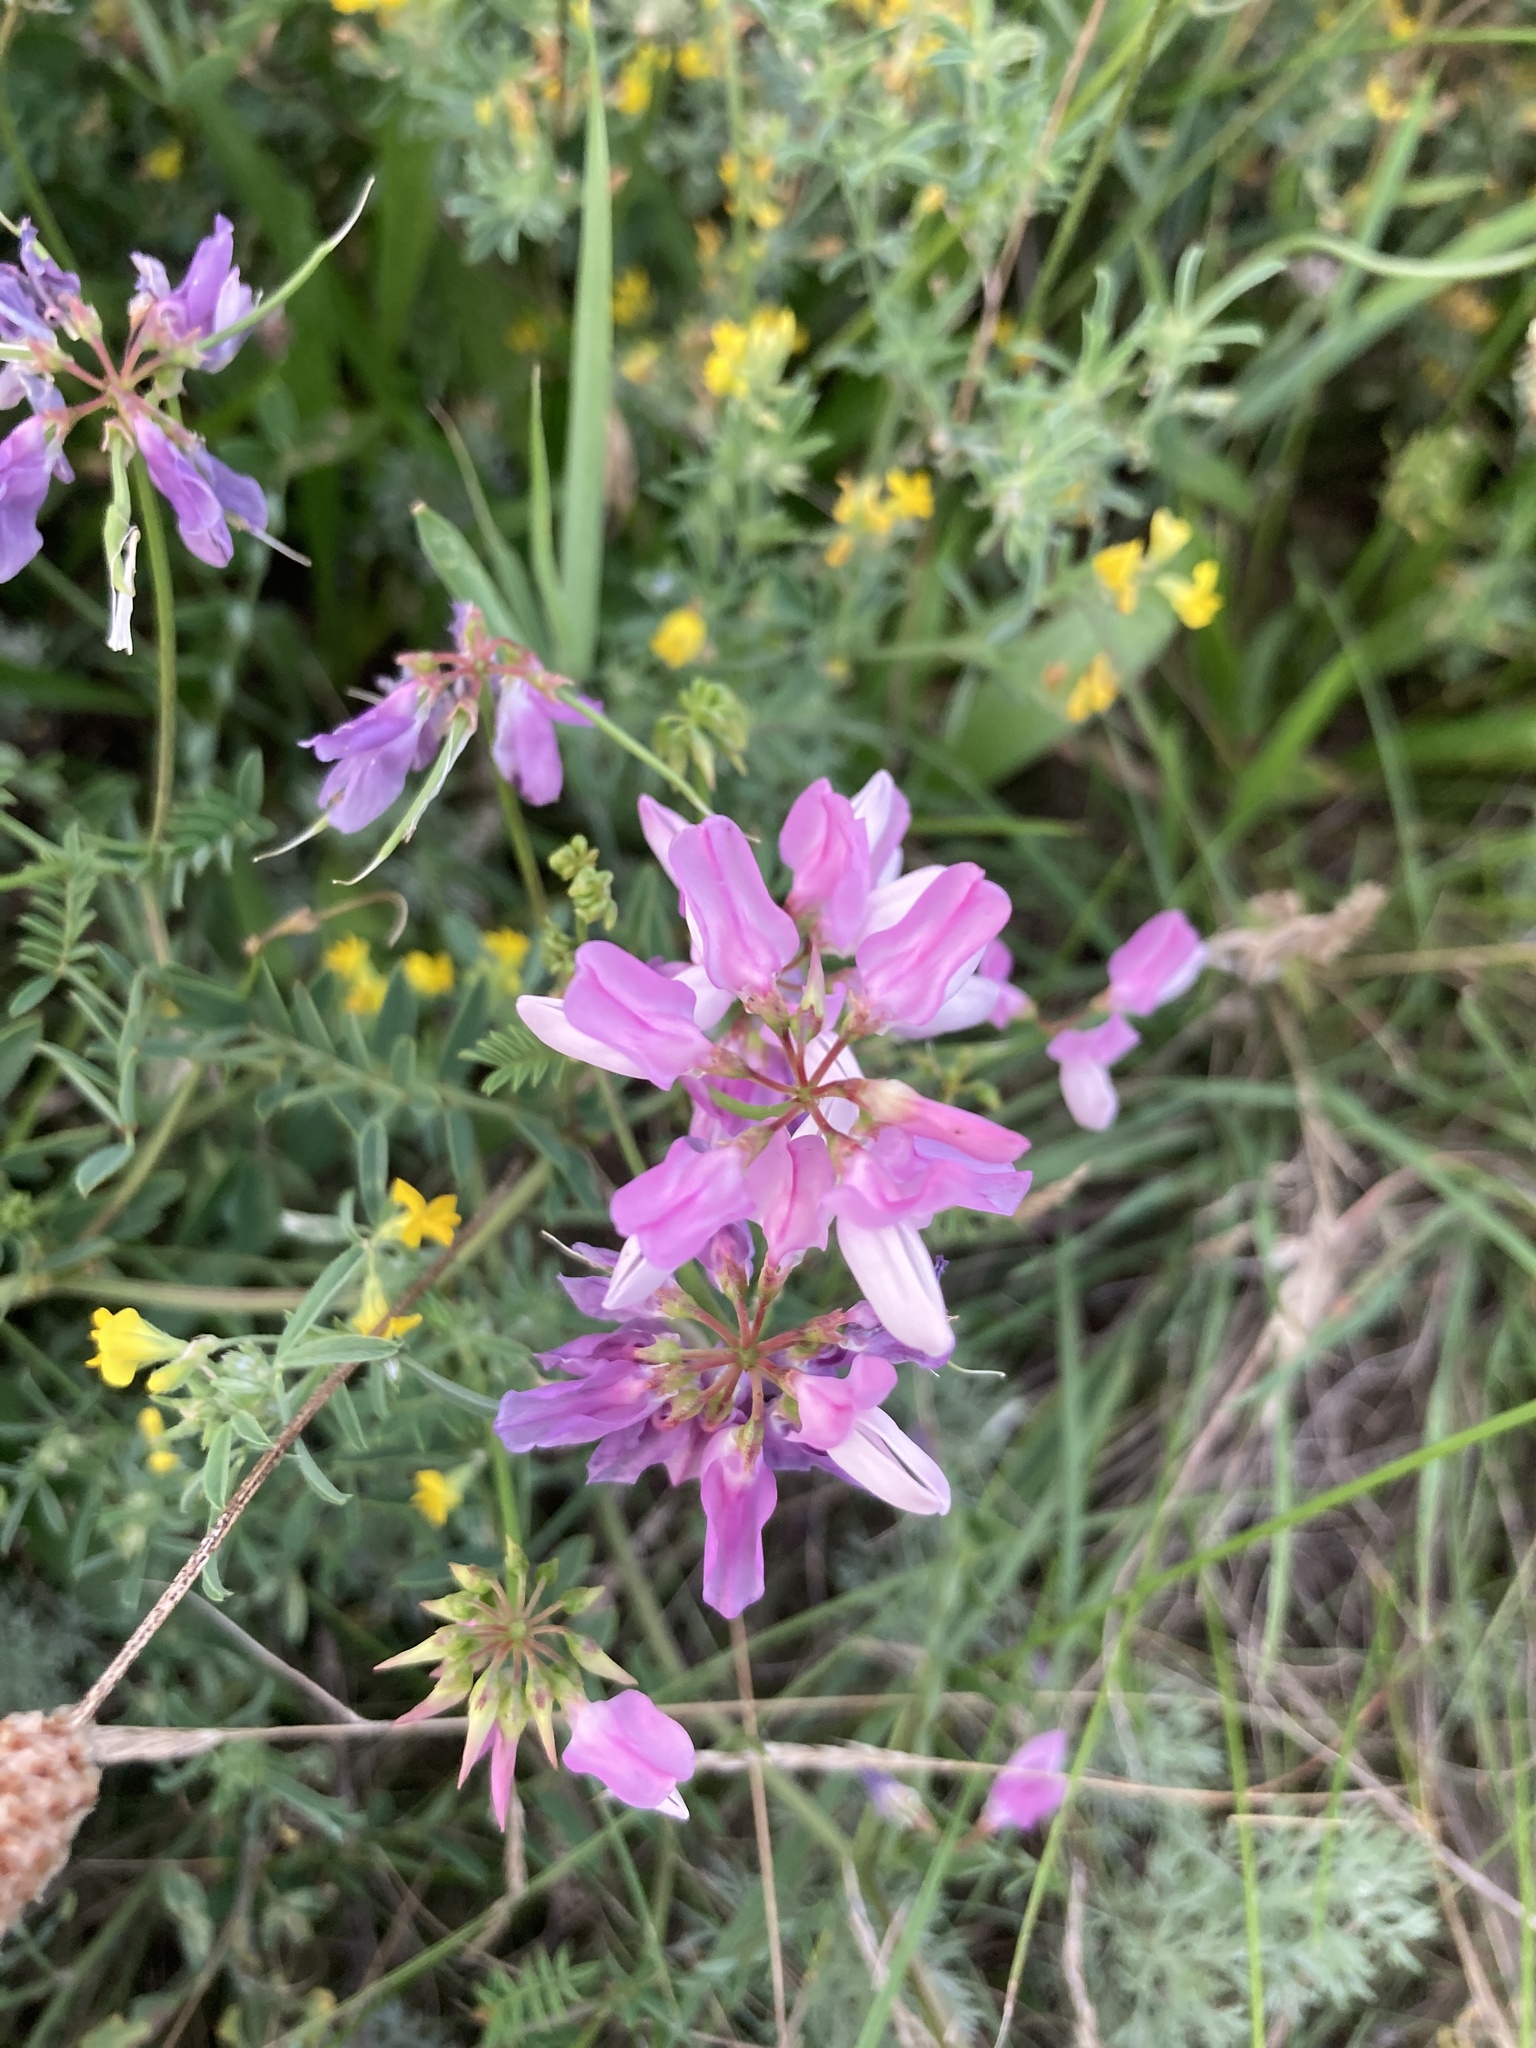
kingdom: Plantae
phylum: Tracheophyta
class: Magnoliopsida
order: Fabales
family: Fabaceae
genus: Coronilla
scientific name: Coronilla varia
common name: Crownvetch
